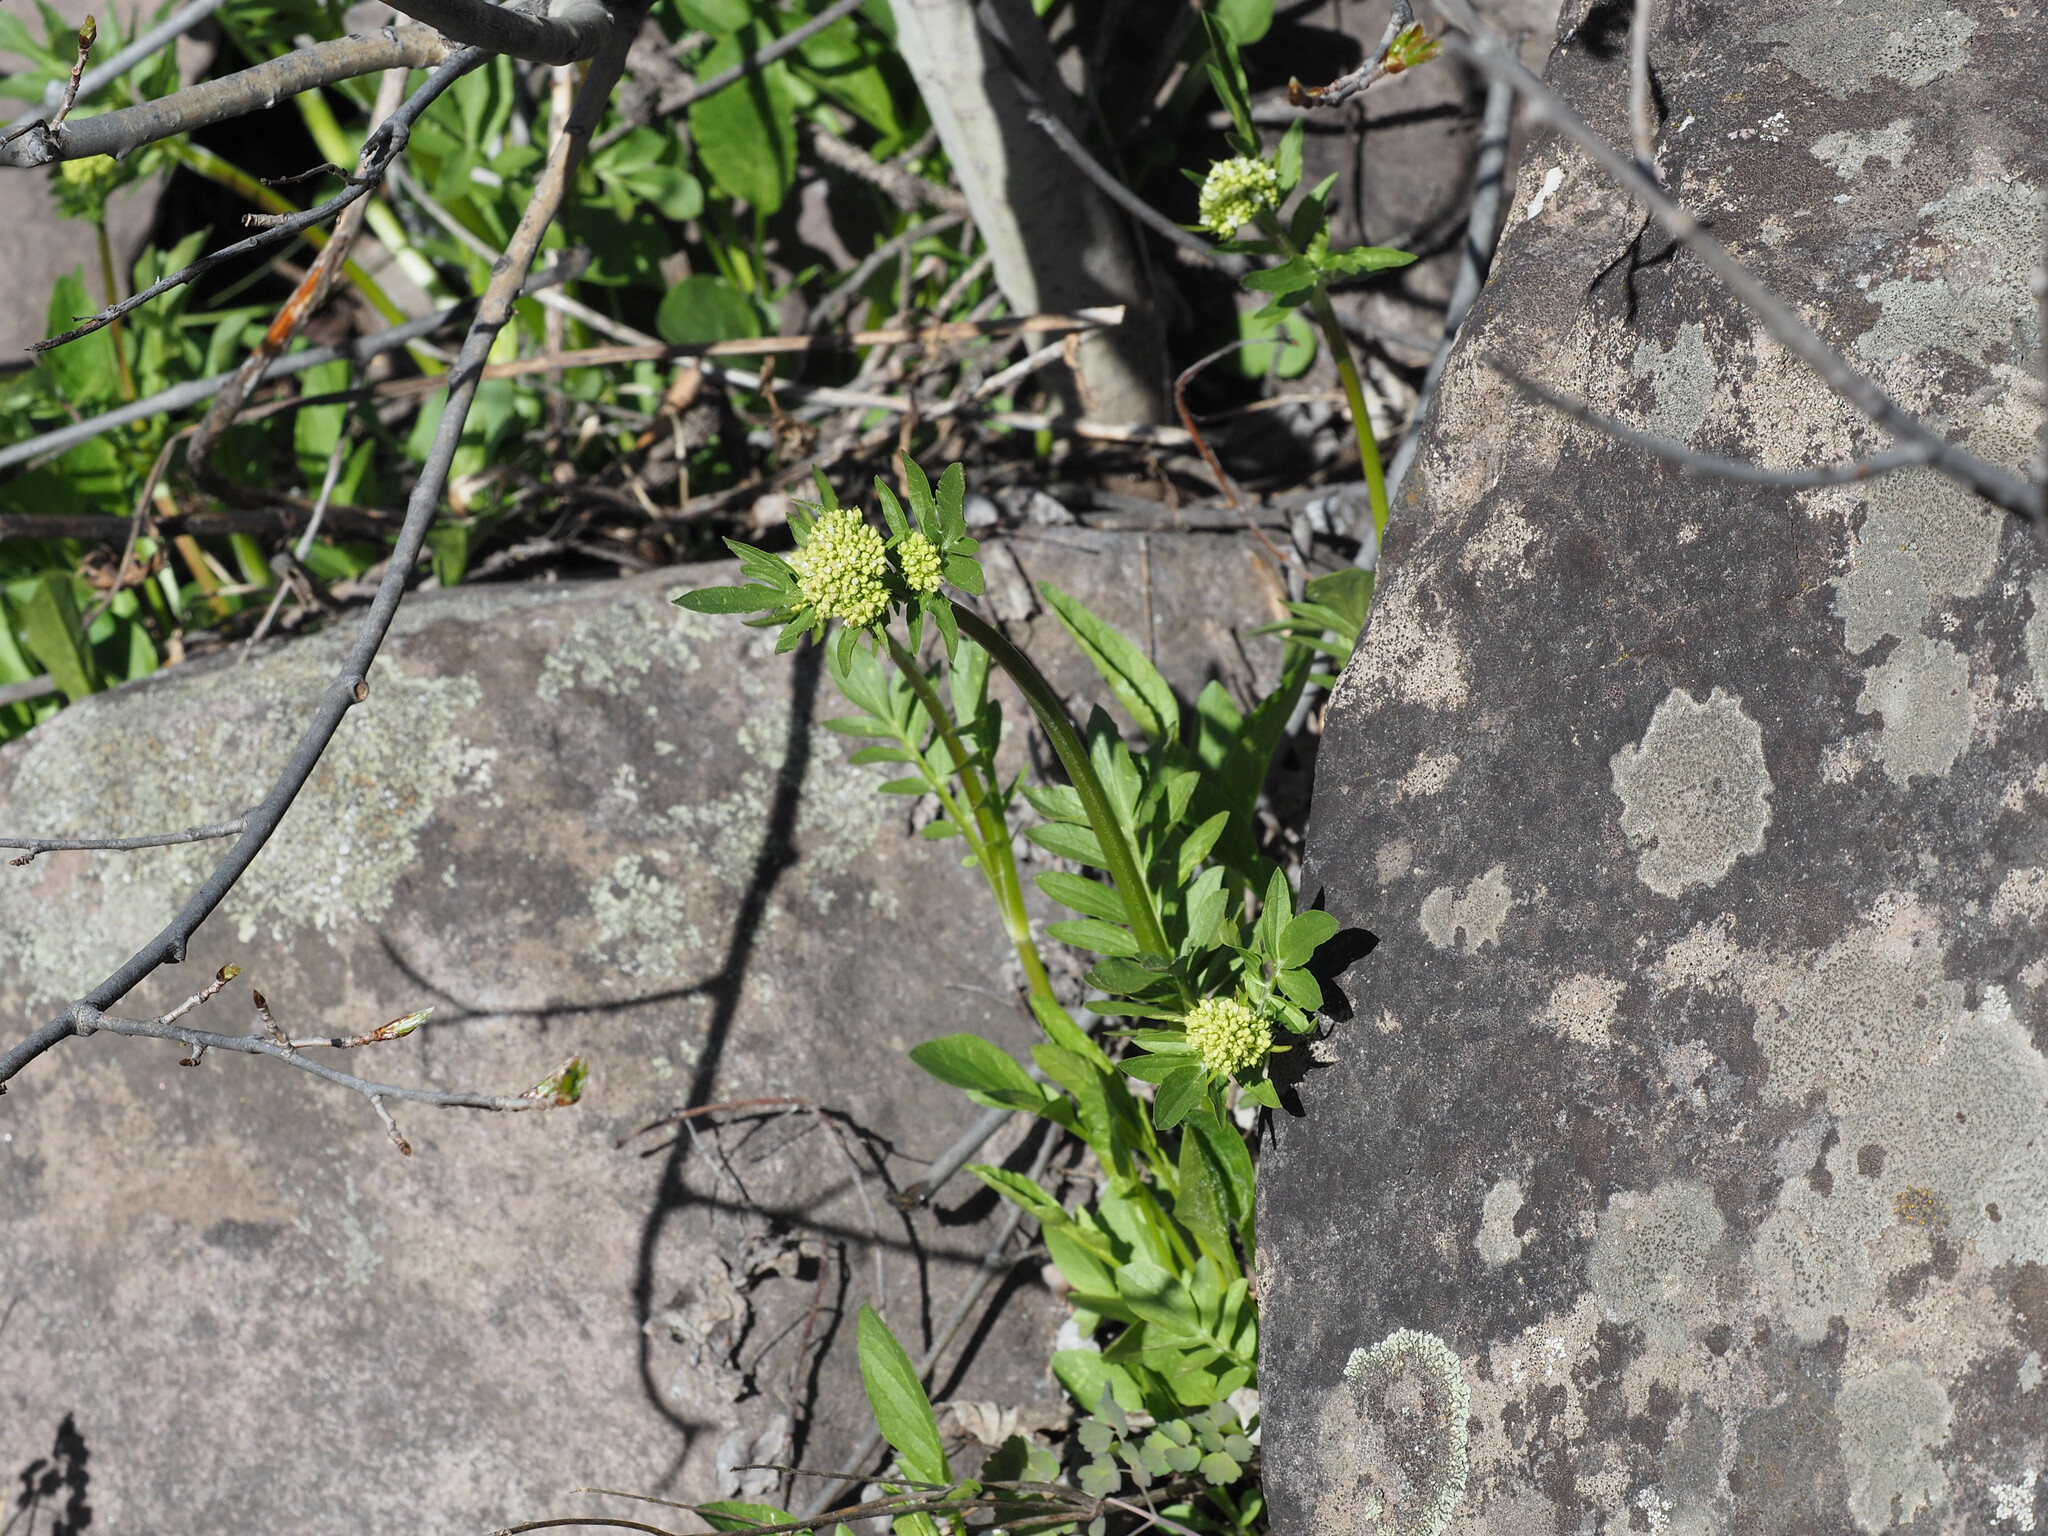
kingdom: Plantae
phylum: Tracheophyta
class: Magnoliopsida
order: Dipsacales
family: Caprifoliaceae
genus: Valeriana
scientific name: Valeriana occidentalis
